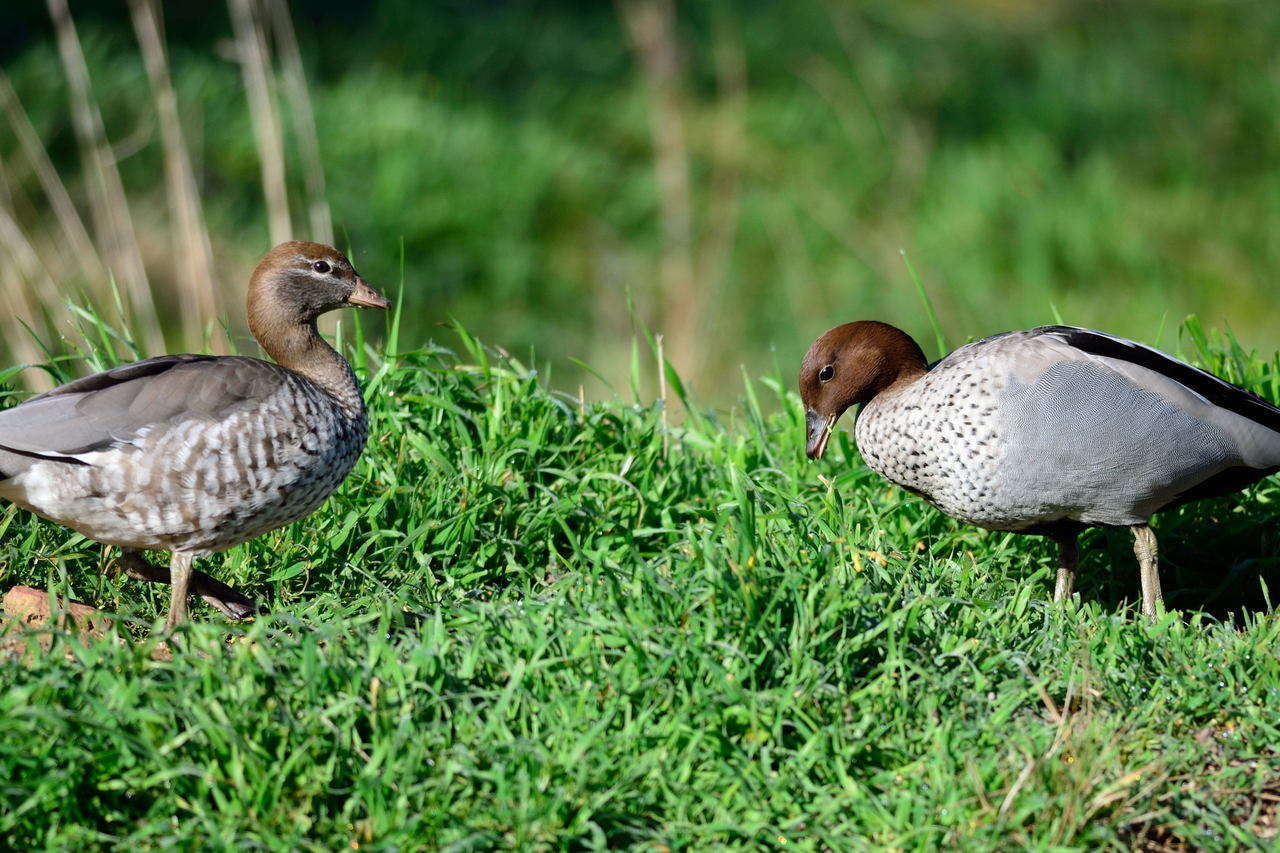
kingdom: Animalia
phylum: Chordata
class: Aves
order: Anseriformes
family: Anatidae
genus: Chenonetta
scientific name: Chenonetta jubata
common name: Maned duck
